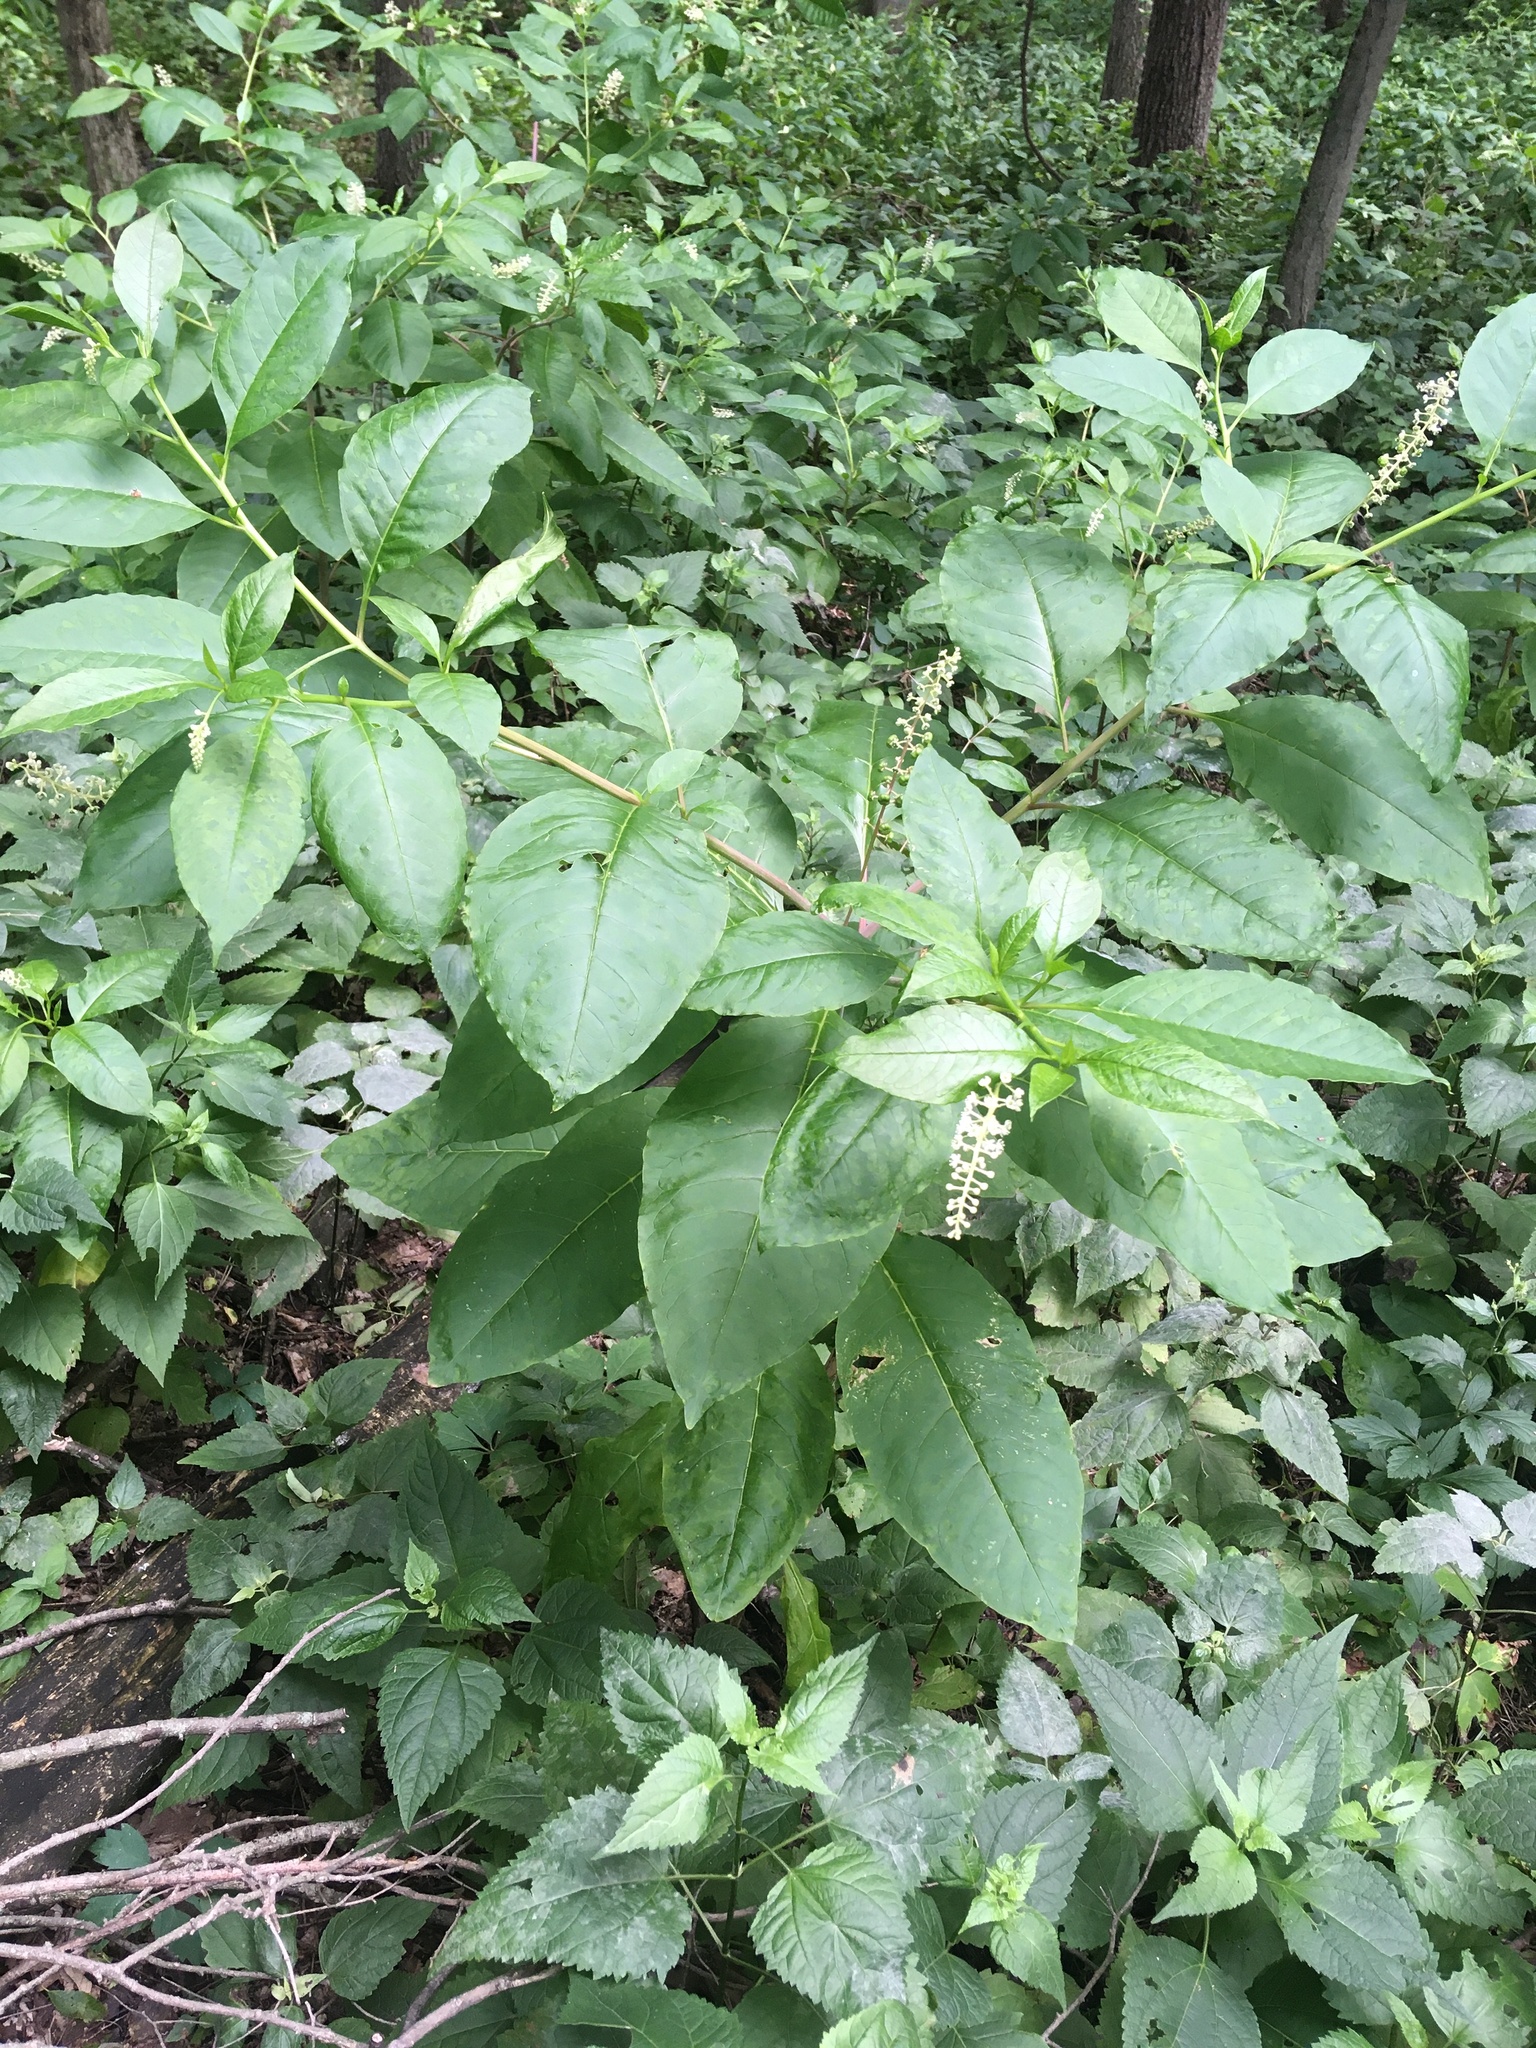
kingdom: Plantae
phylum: Tracheophyta
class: Magnoliopsida
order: Caryophyllales
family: Phytolaccaceae
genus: Phytolacca
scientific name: Phytolacca americana
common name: American pokeweed
